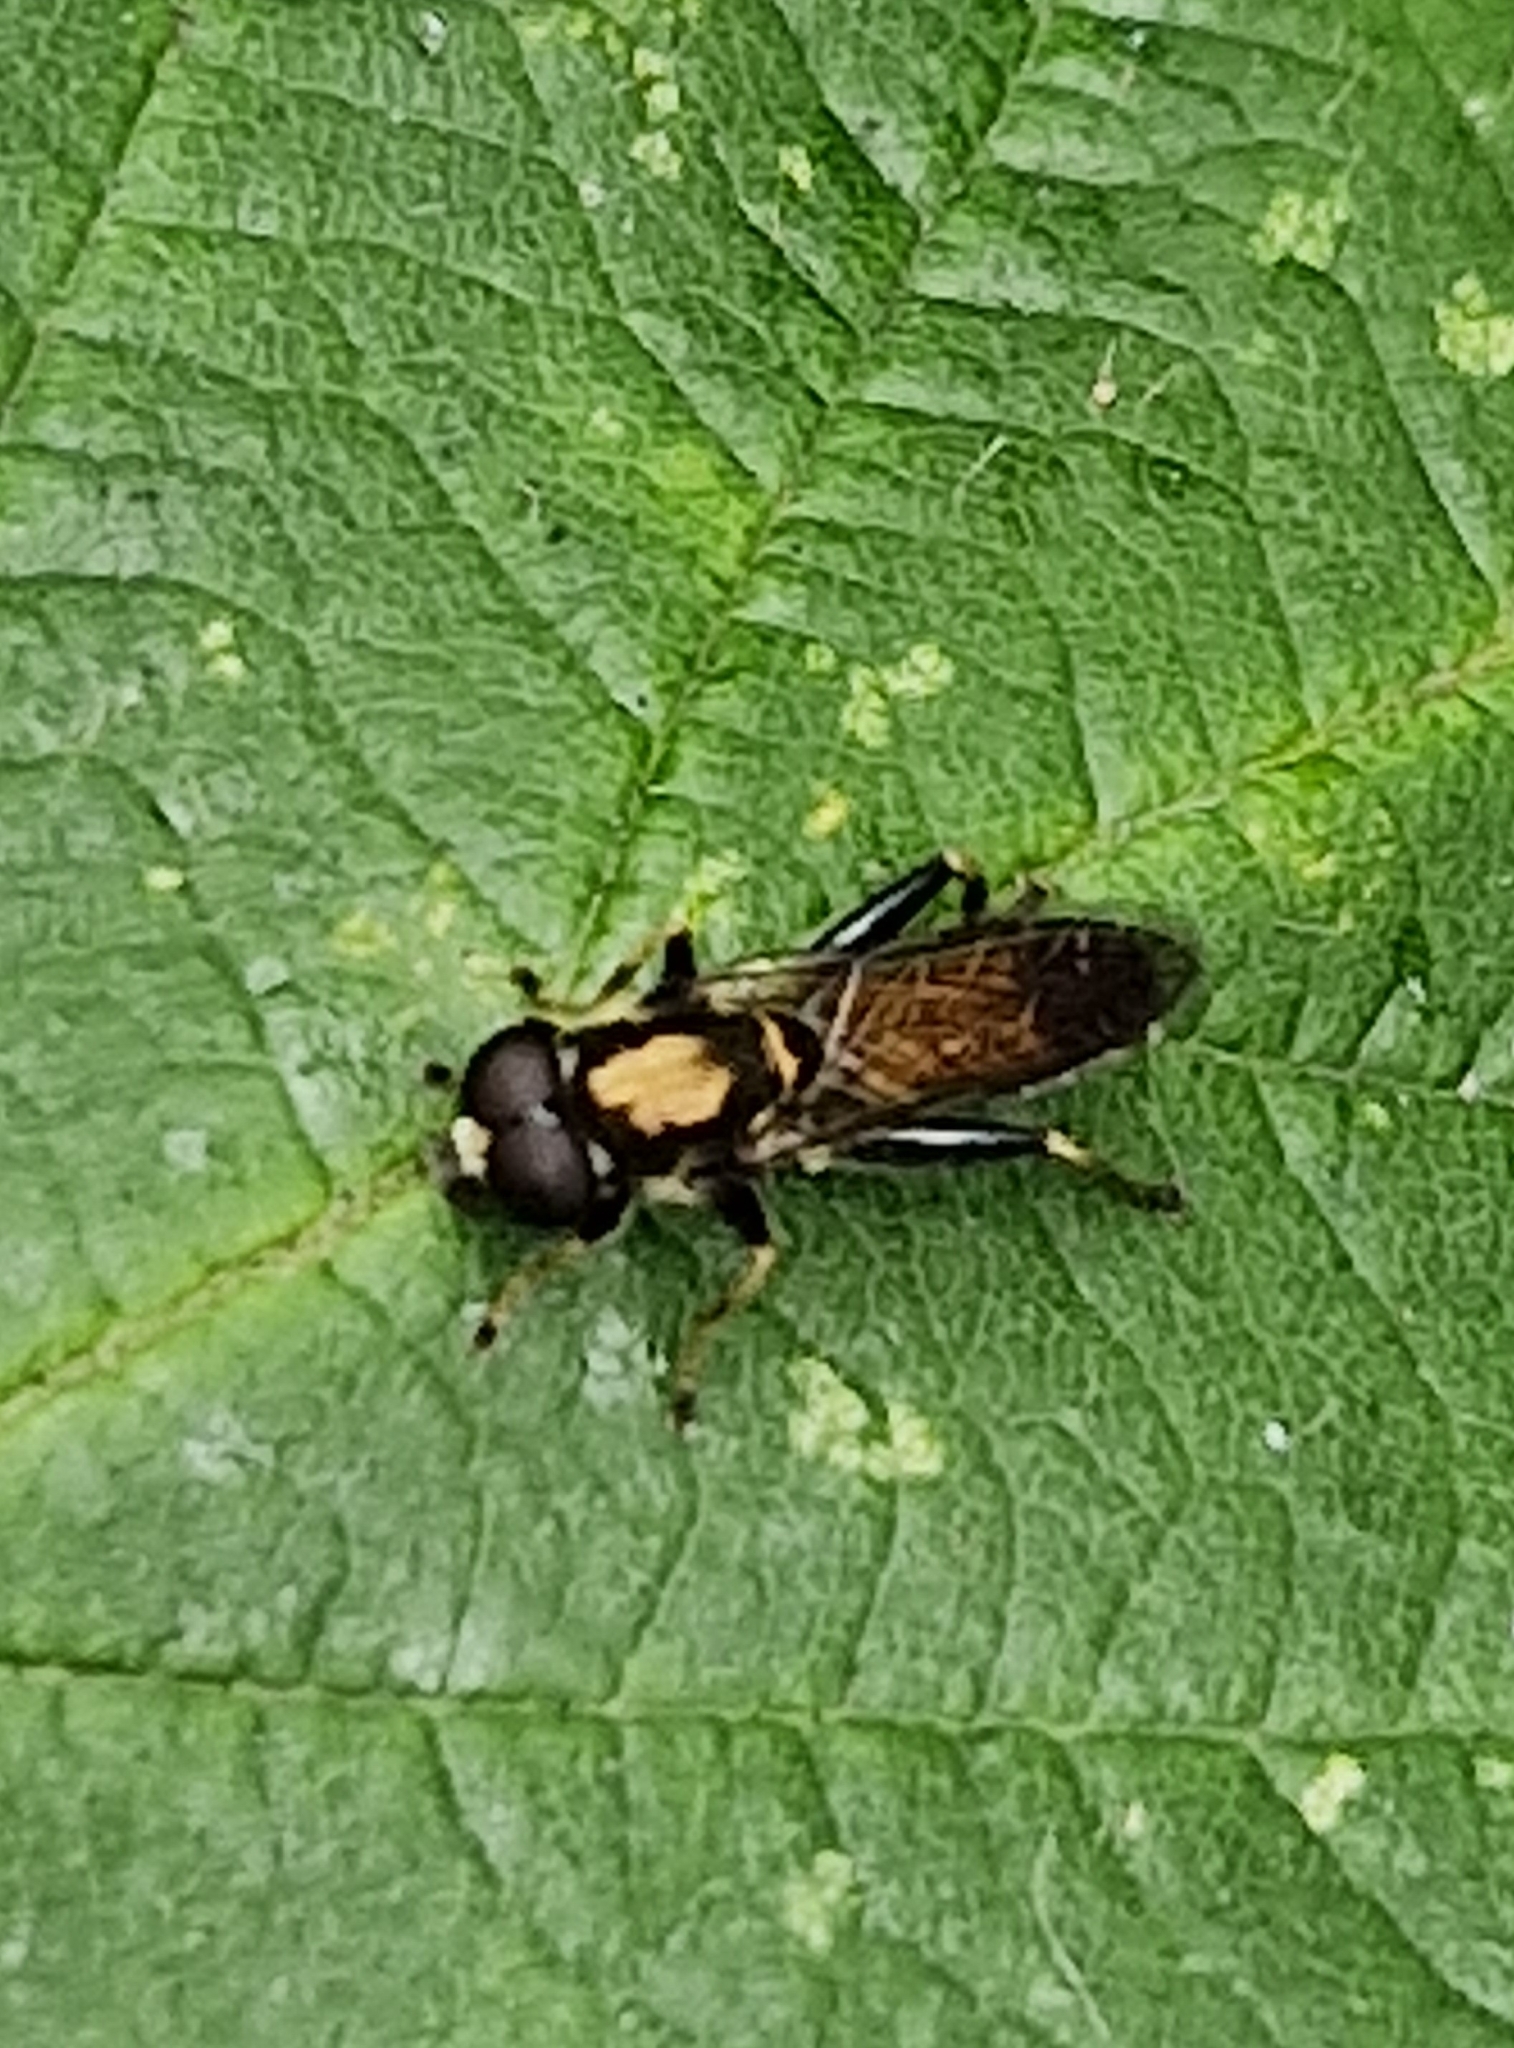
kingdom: Animalia
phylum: Arthropoda
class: Insecta
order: Diptera
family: Syrphidae
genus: Xylota
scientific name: Xylota segnis
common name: Brown-toed forest fly
